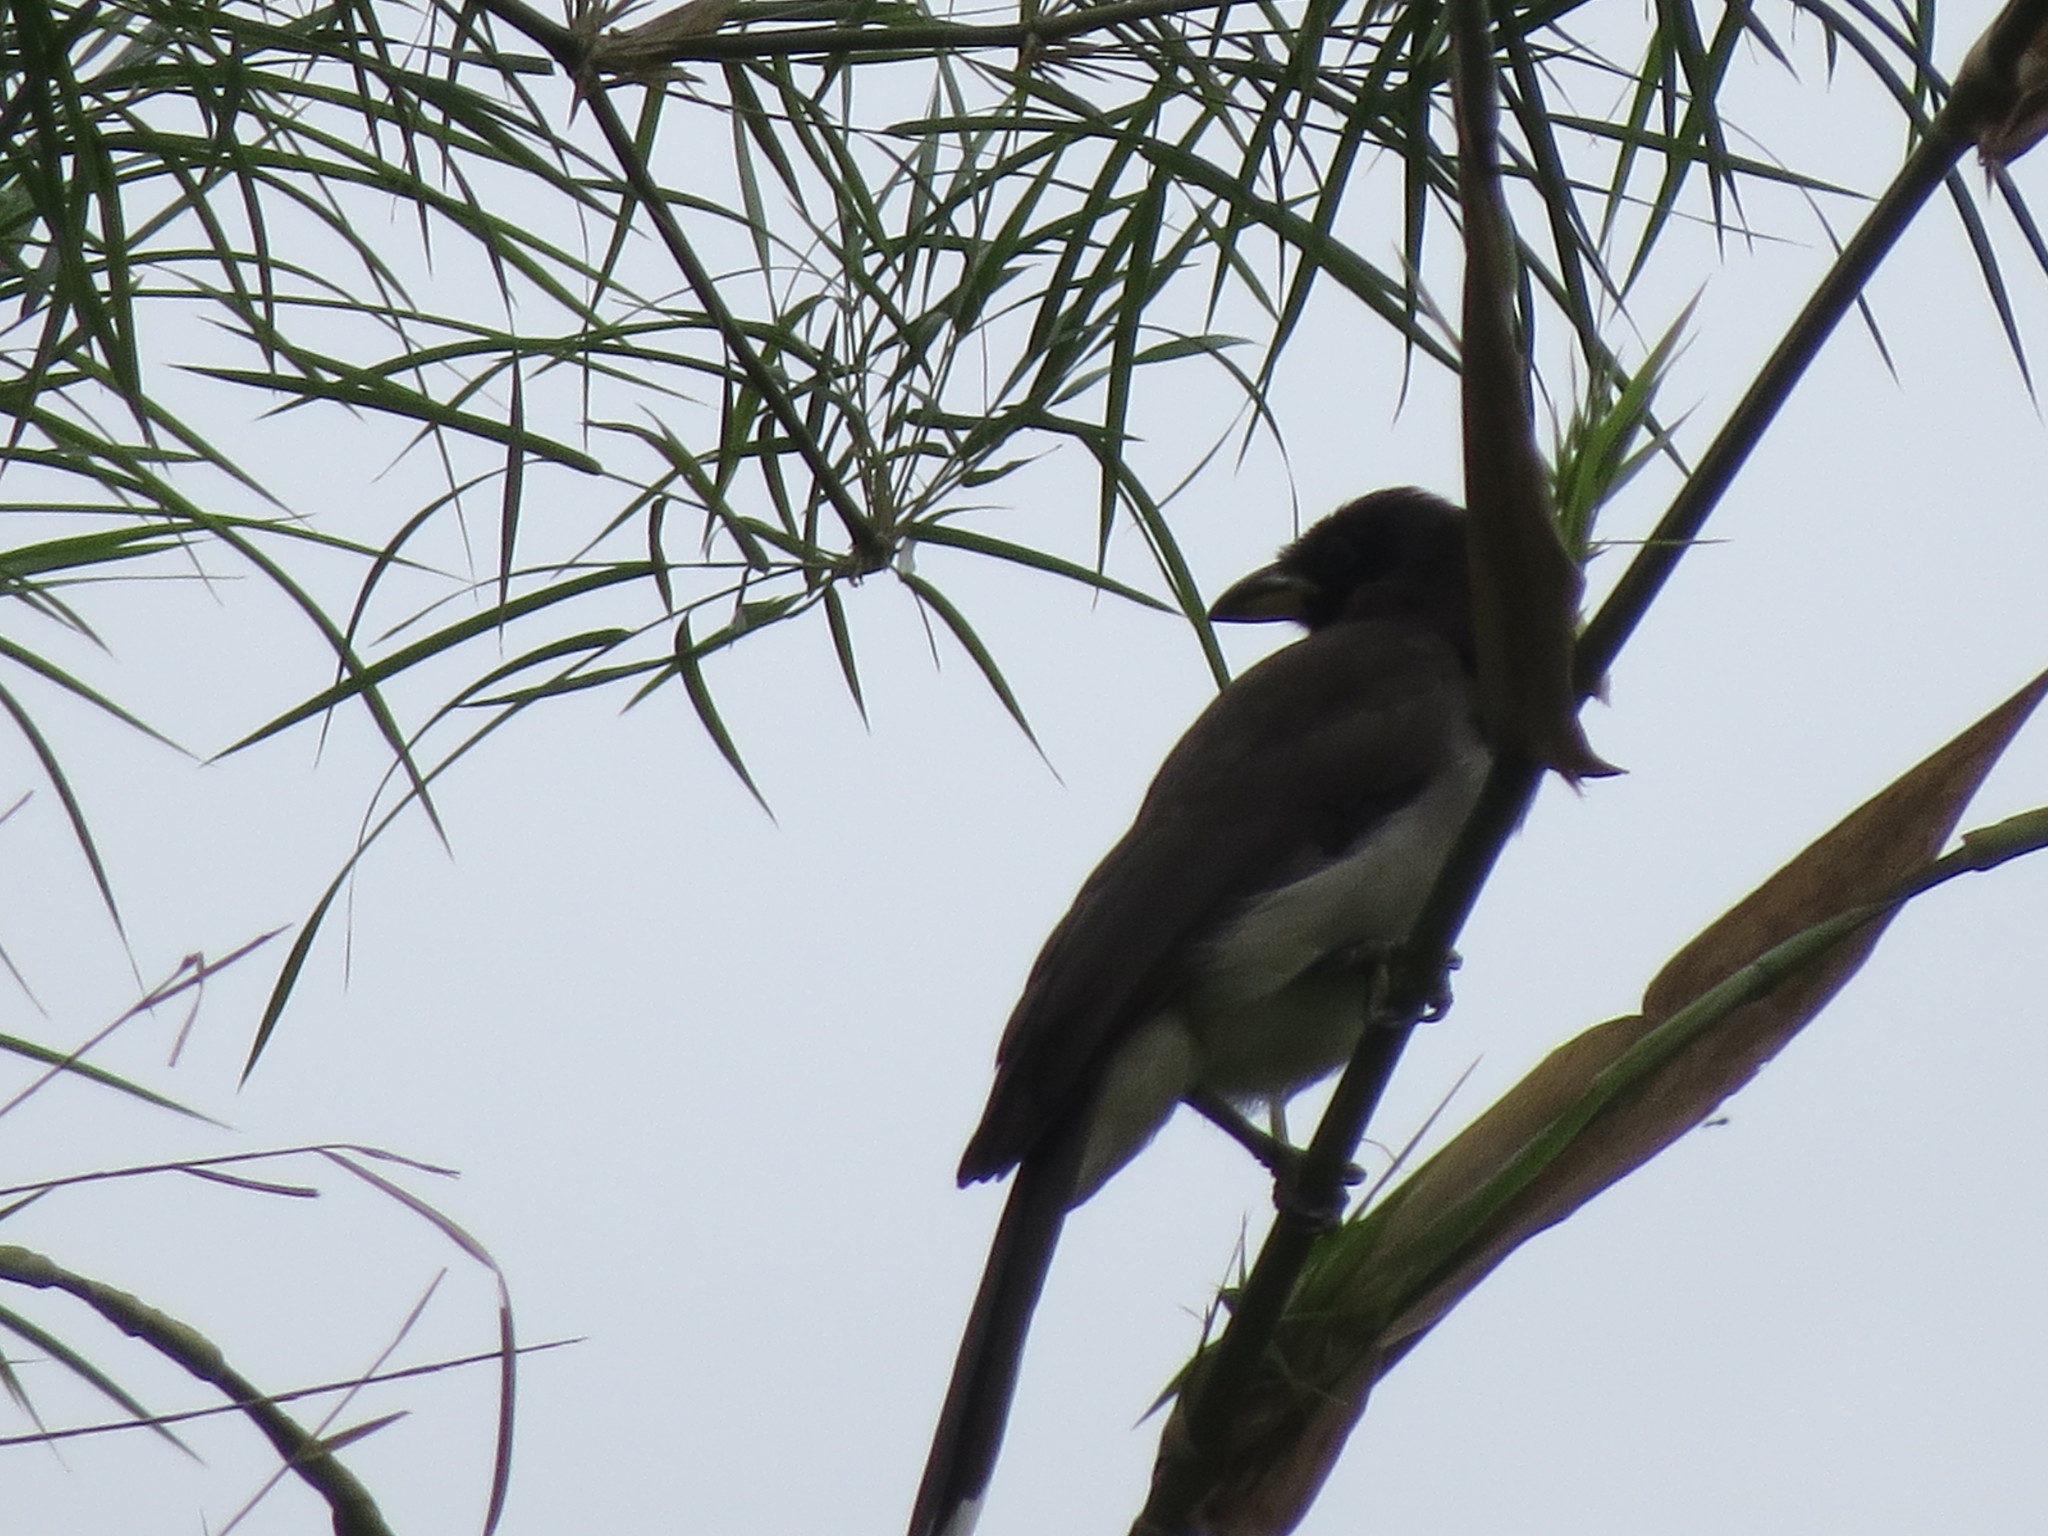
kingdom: Animalia
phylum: Chordata
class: Aves
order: Passeriformes
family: Corvidae
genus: Psilorhinus
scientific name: Psilorhinus morio
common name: Brown jay
